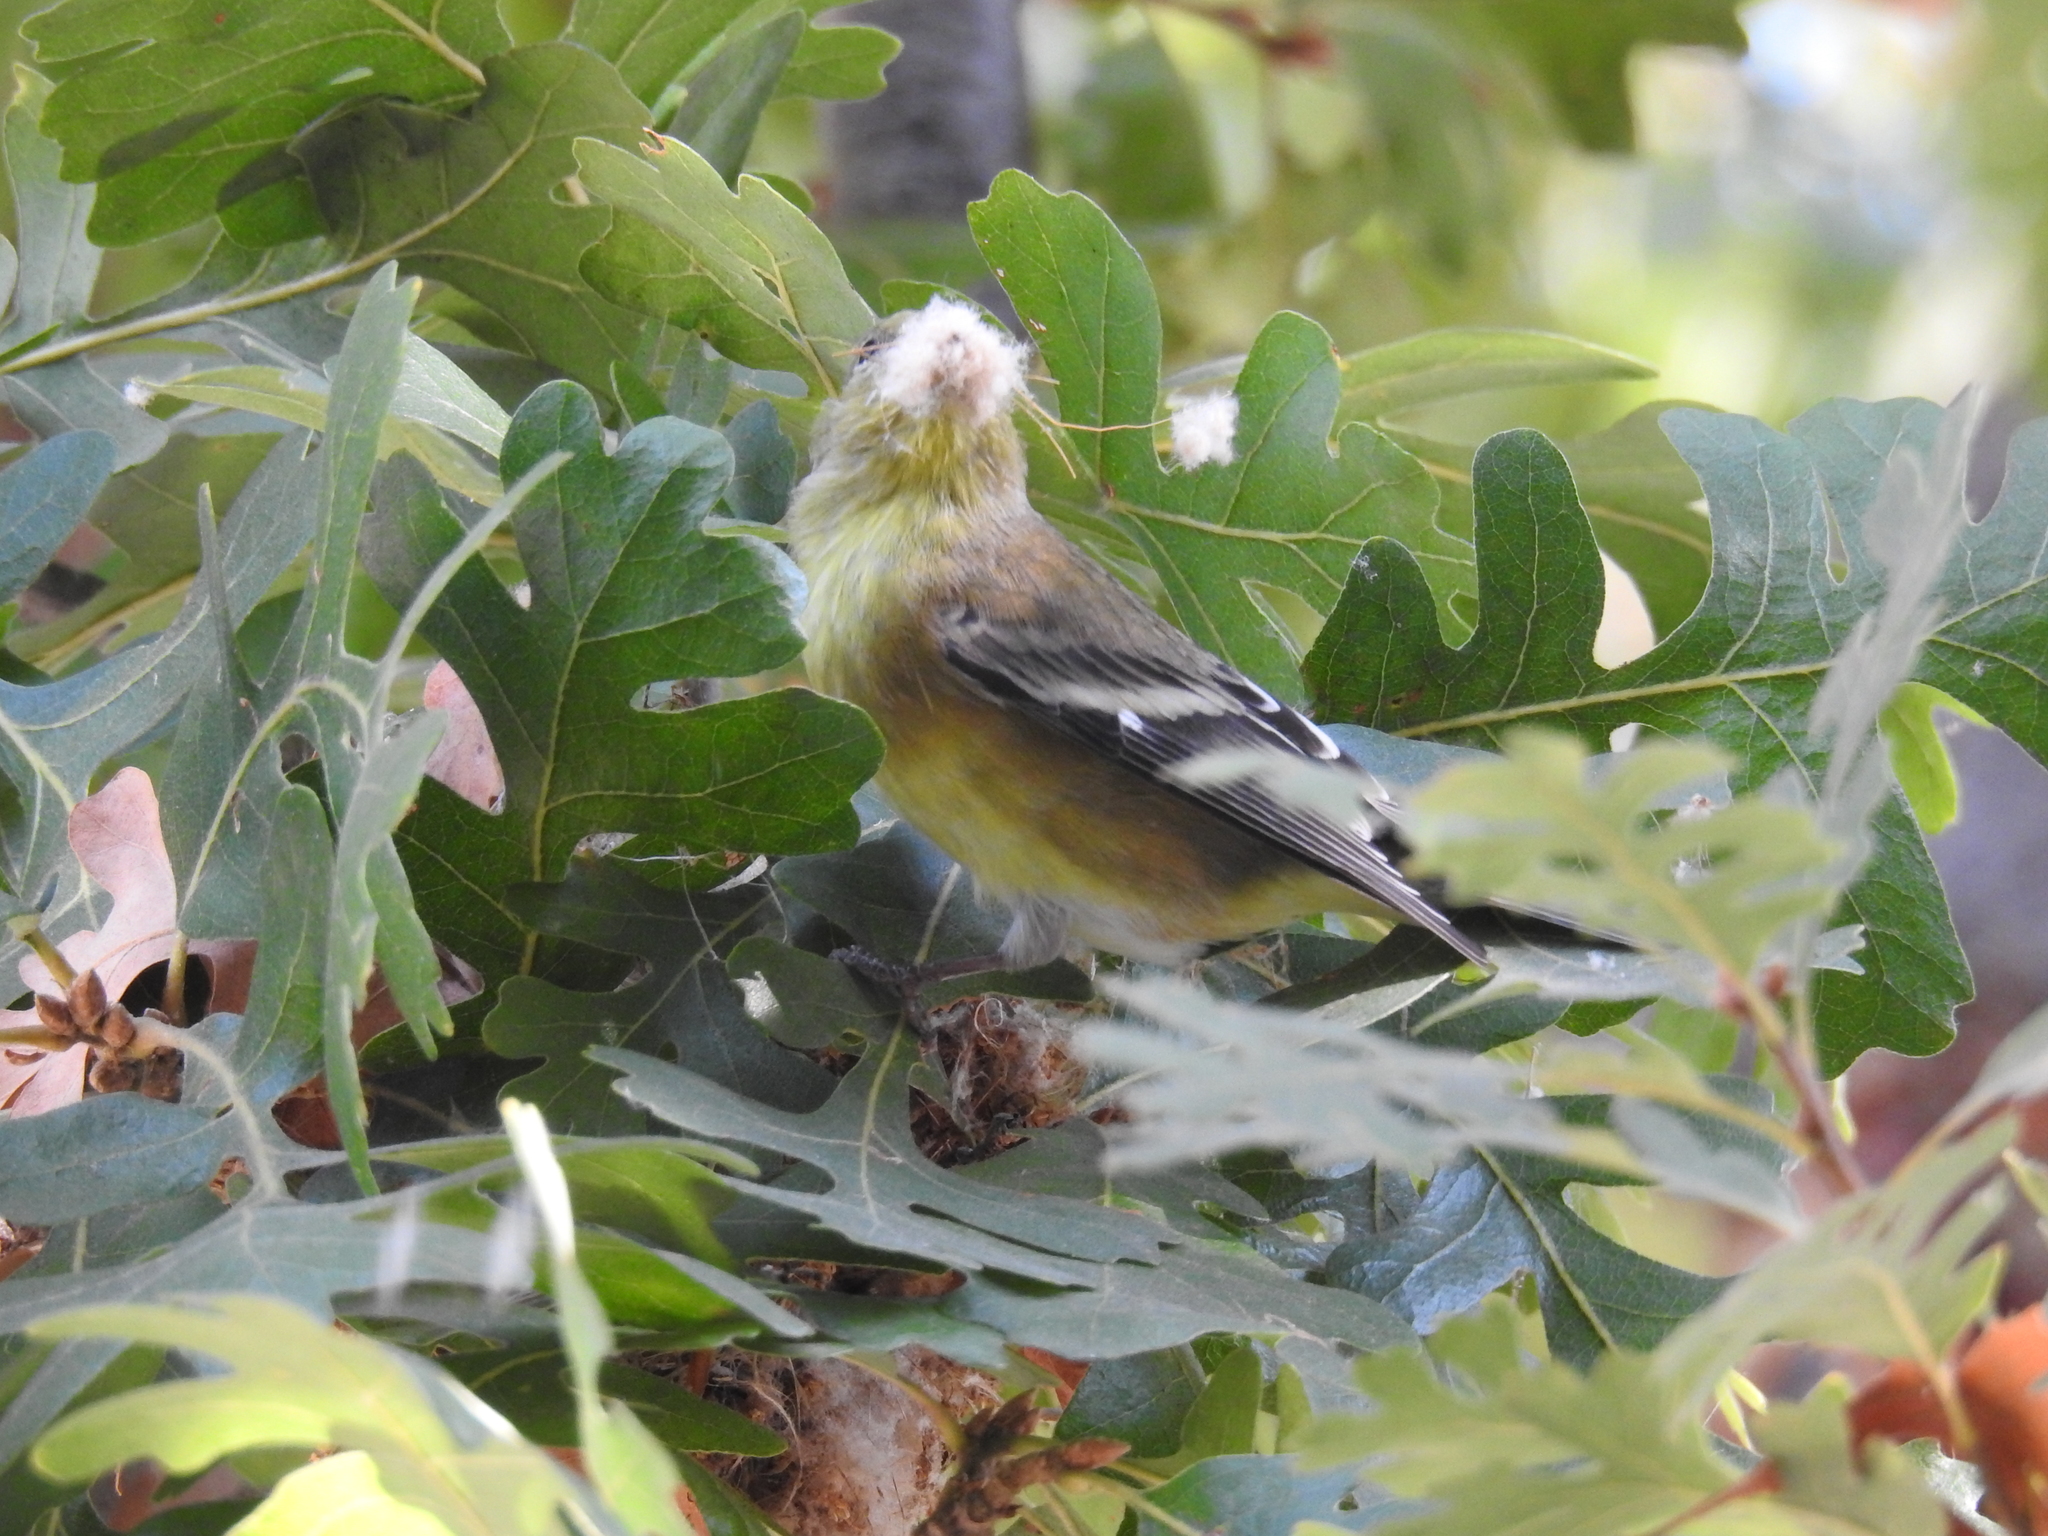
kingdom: Animalia
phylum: Chordata
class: Aves
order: Passeriformes
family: Fringillidae
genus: Spinus
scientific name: Spinus psaltria
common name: Lesser goldfinch
